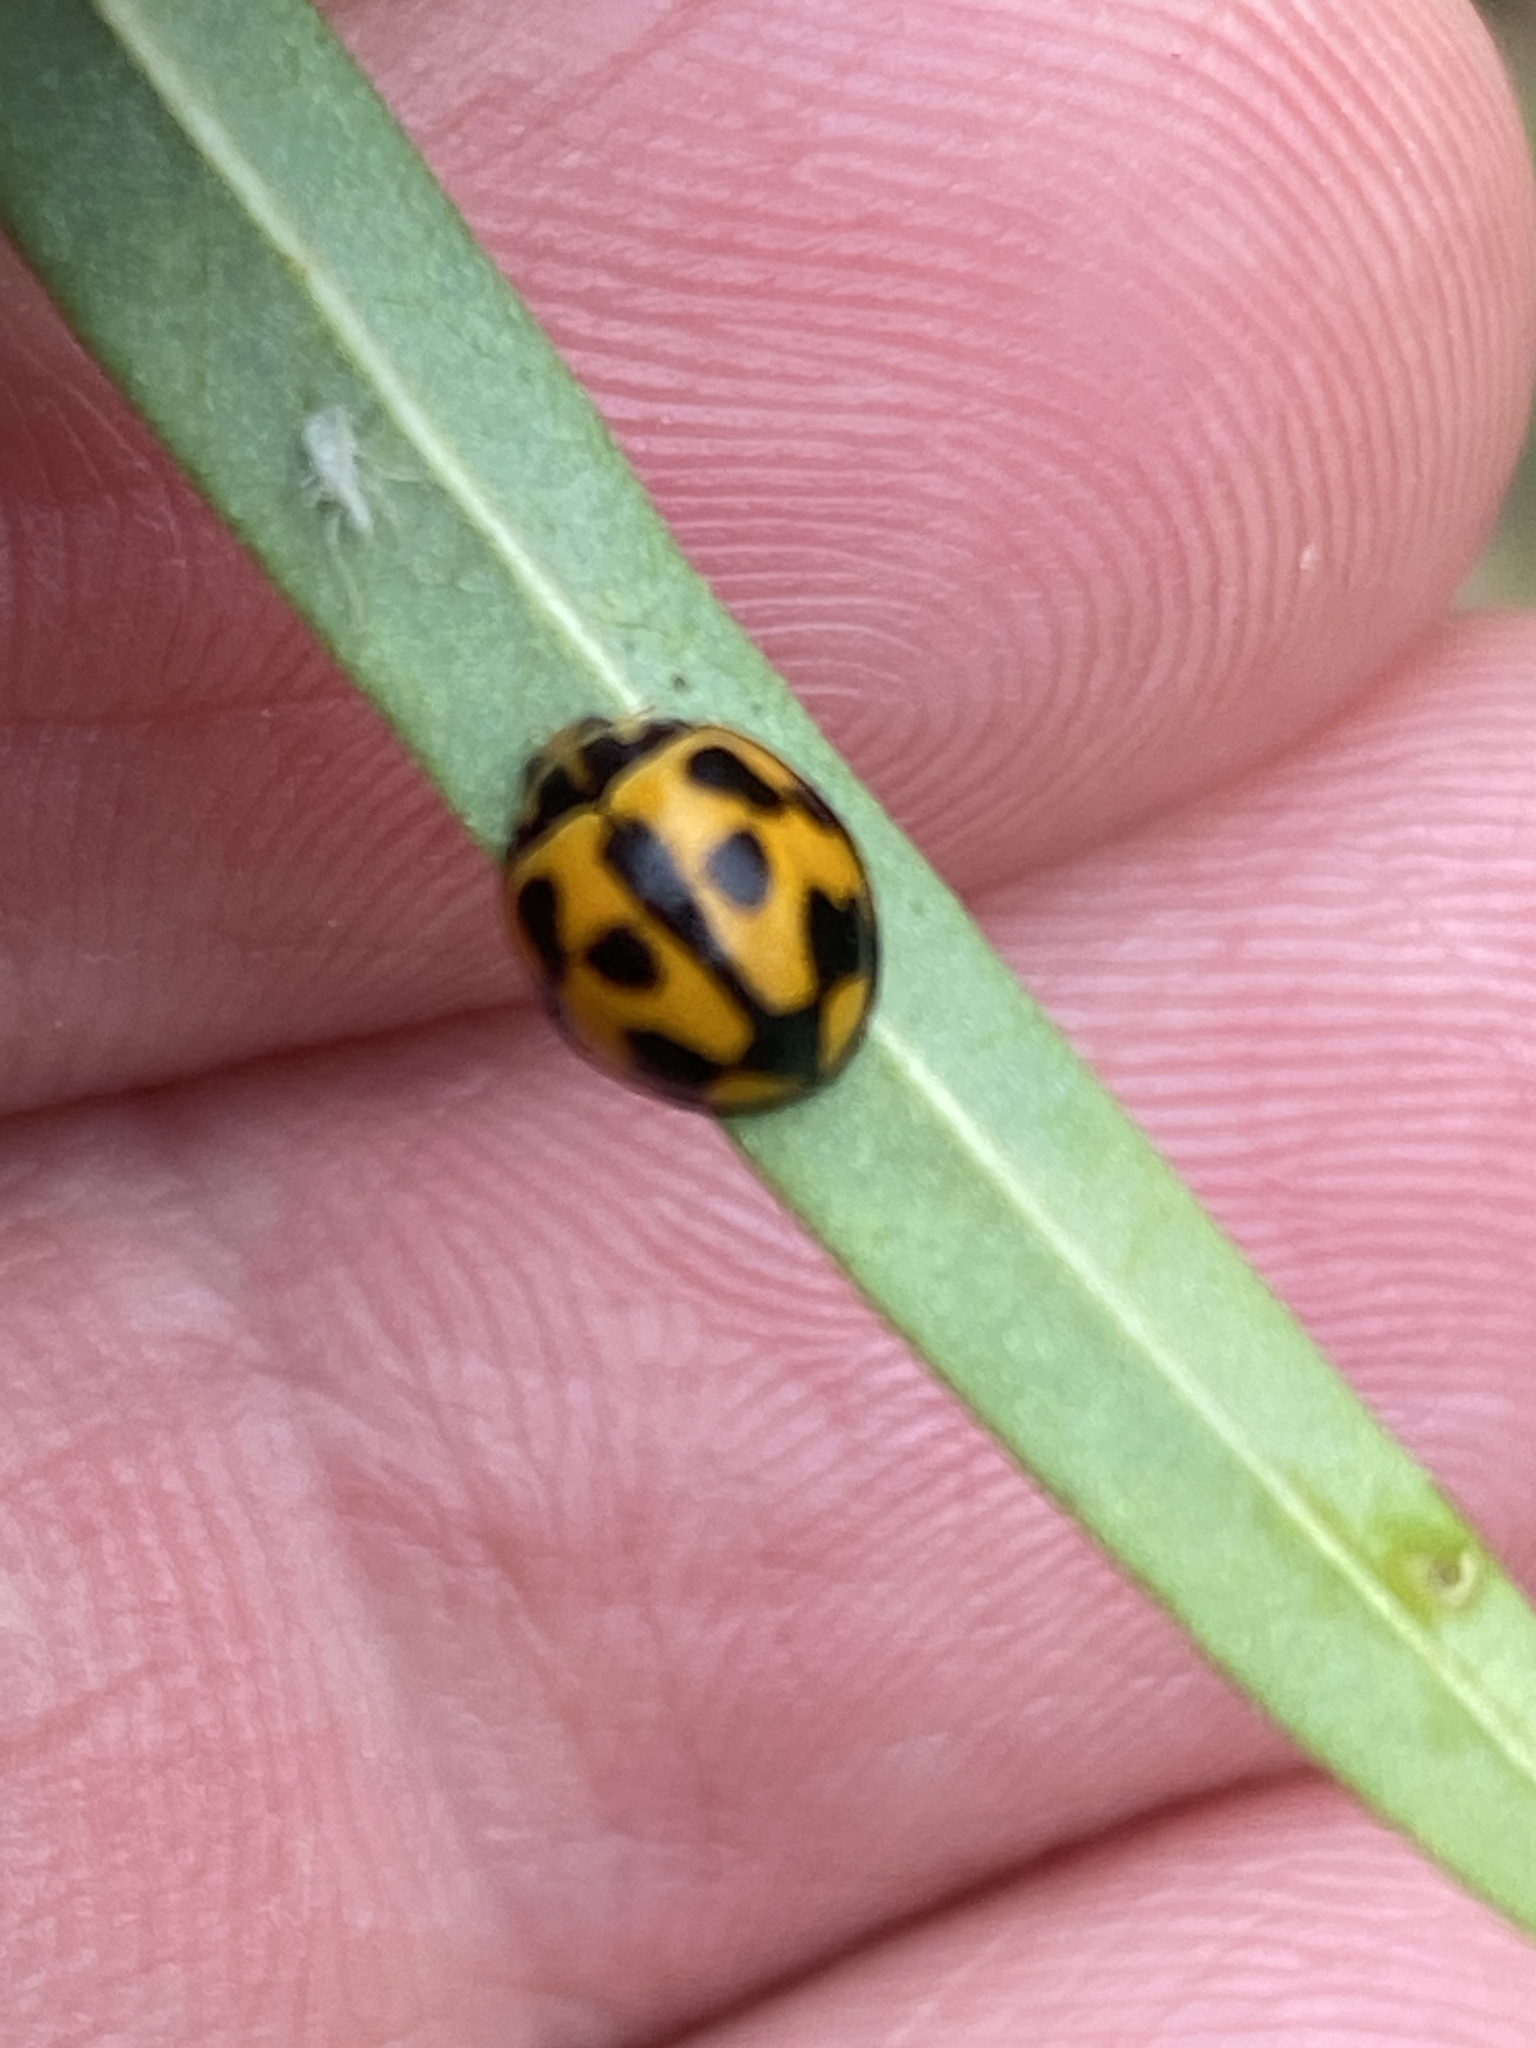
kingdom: Animalia
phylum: Arthropoda
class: Insecta
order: Coleoptera
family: Coccinellidae
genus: Coelophora
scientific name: Coelophora inaequalis
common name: Common australian lady beetle
